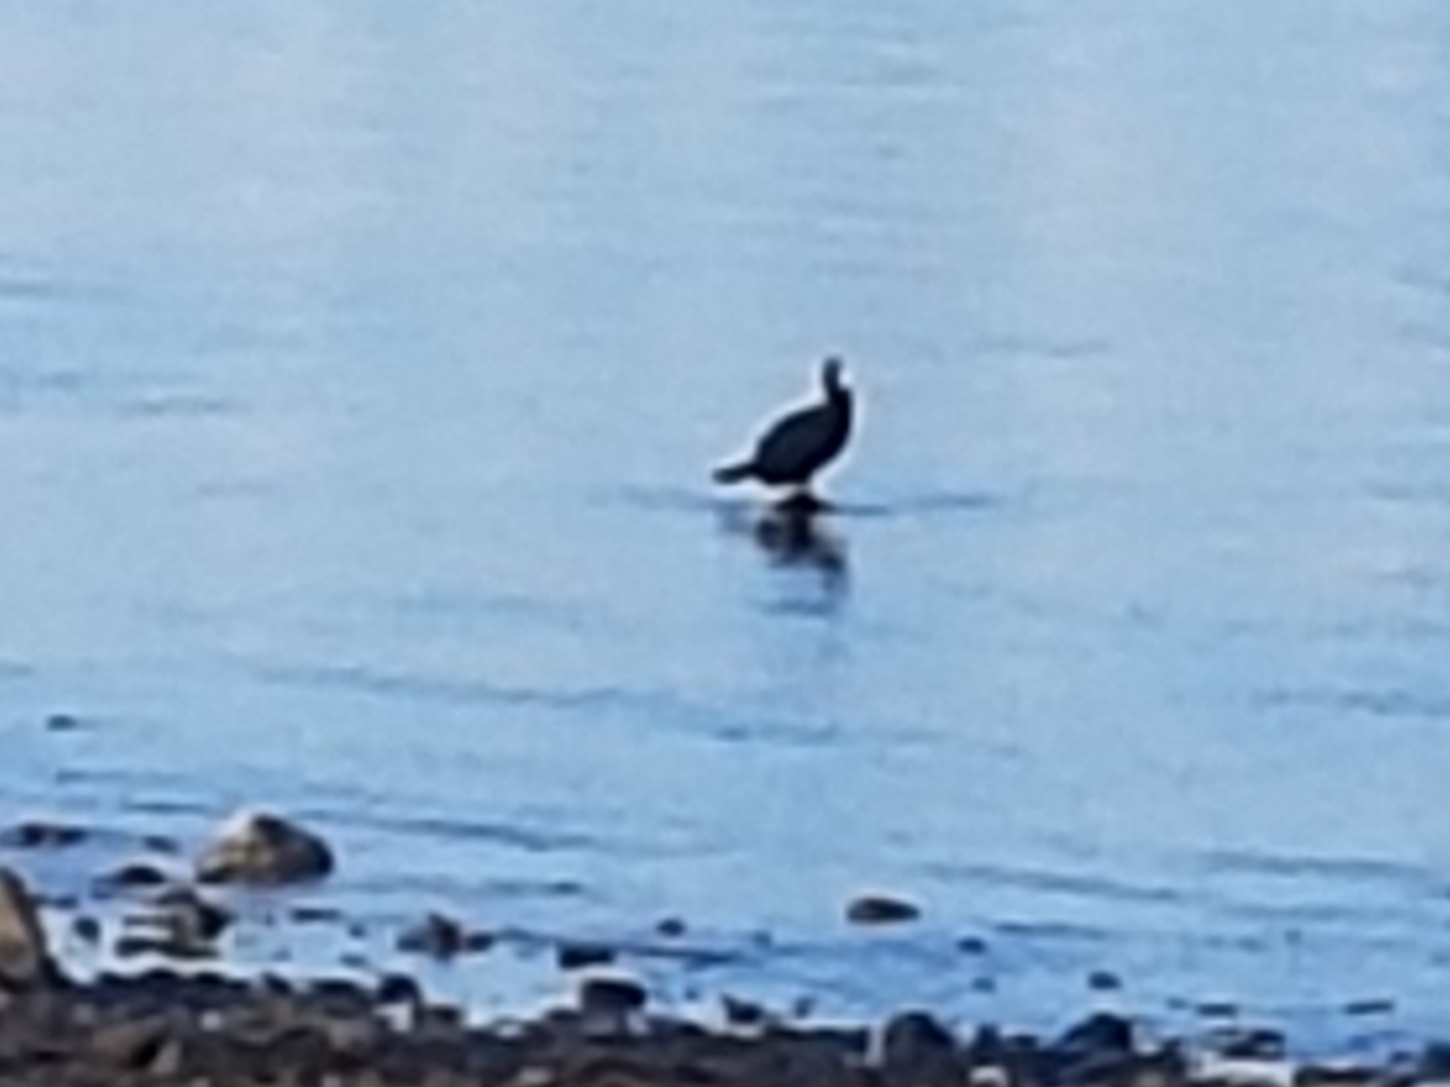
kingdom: Animalia
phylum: Chordata
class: Aves
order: Suliformes
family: Phalacrocoracidae
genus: Phalacrocorax
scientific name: Phalacrocorax carbo
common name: Great cormorant
